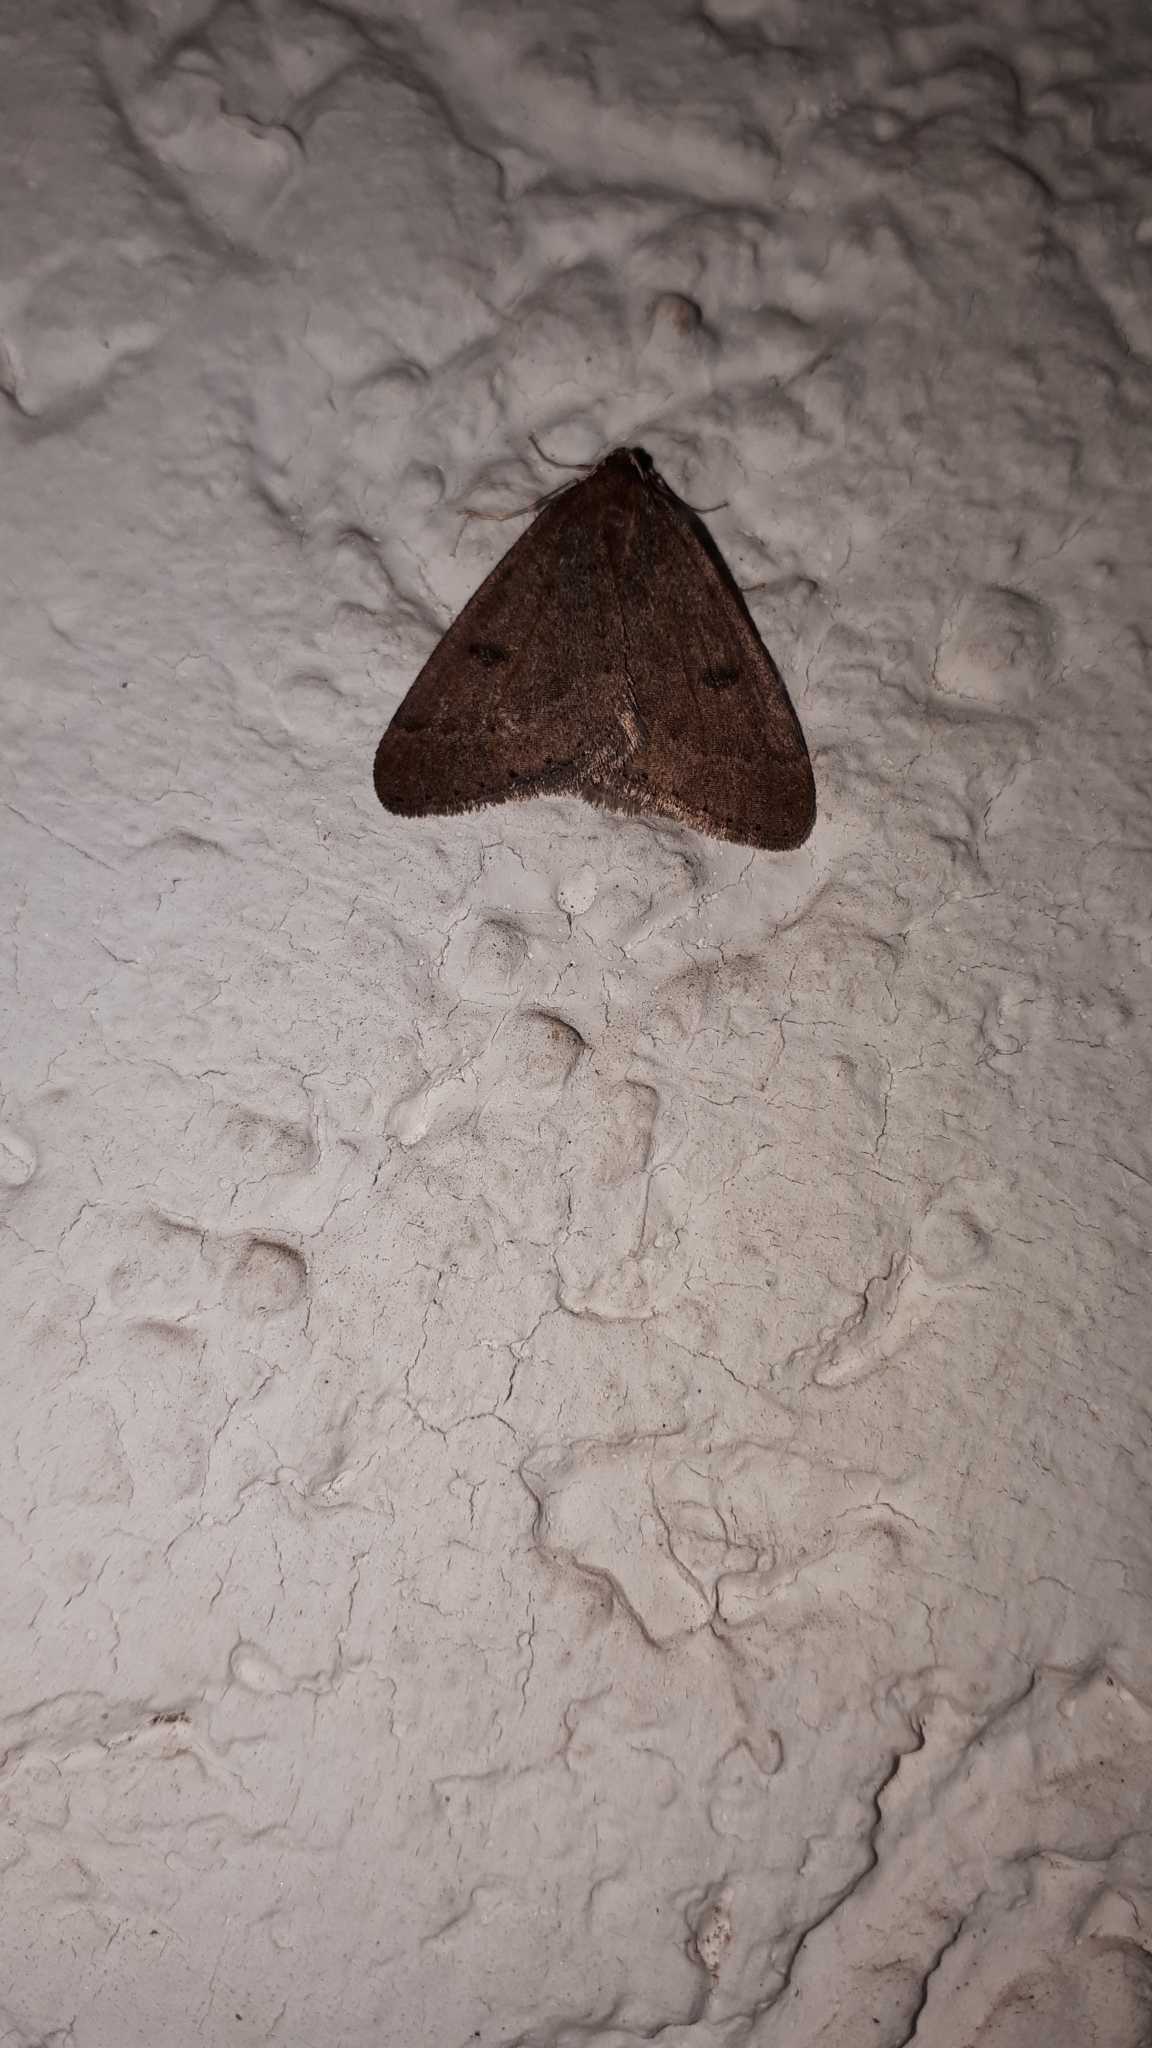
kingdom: Animalia
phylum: Arthropoda
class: Insecta
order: Lepidoptera
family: Geometridae
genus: Theria
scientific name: Theria primaria
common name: Early moth
